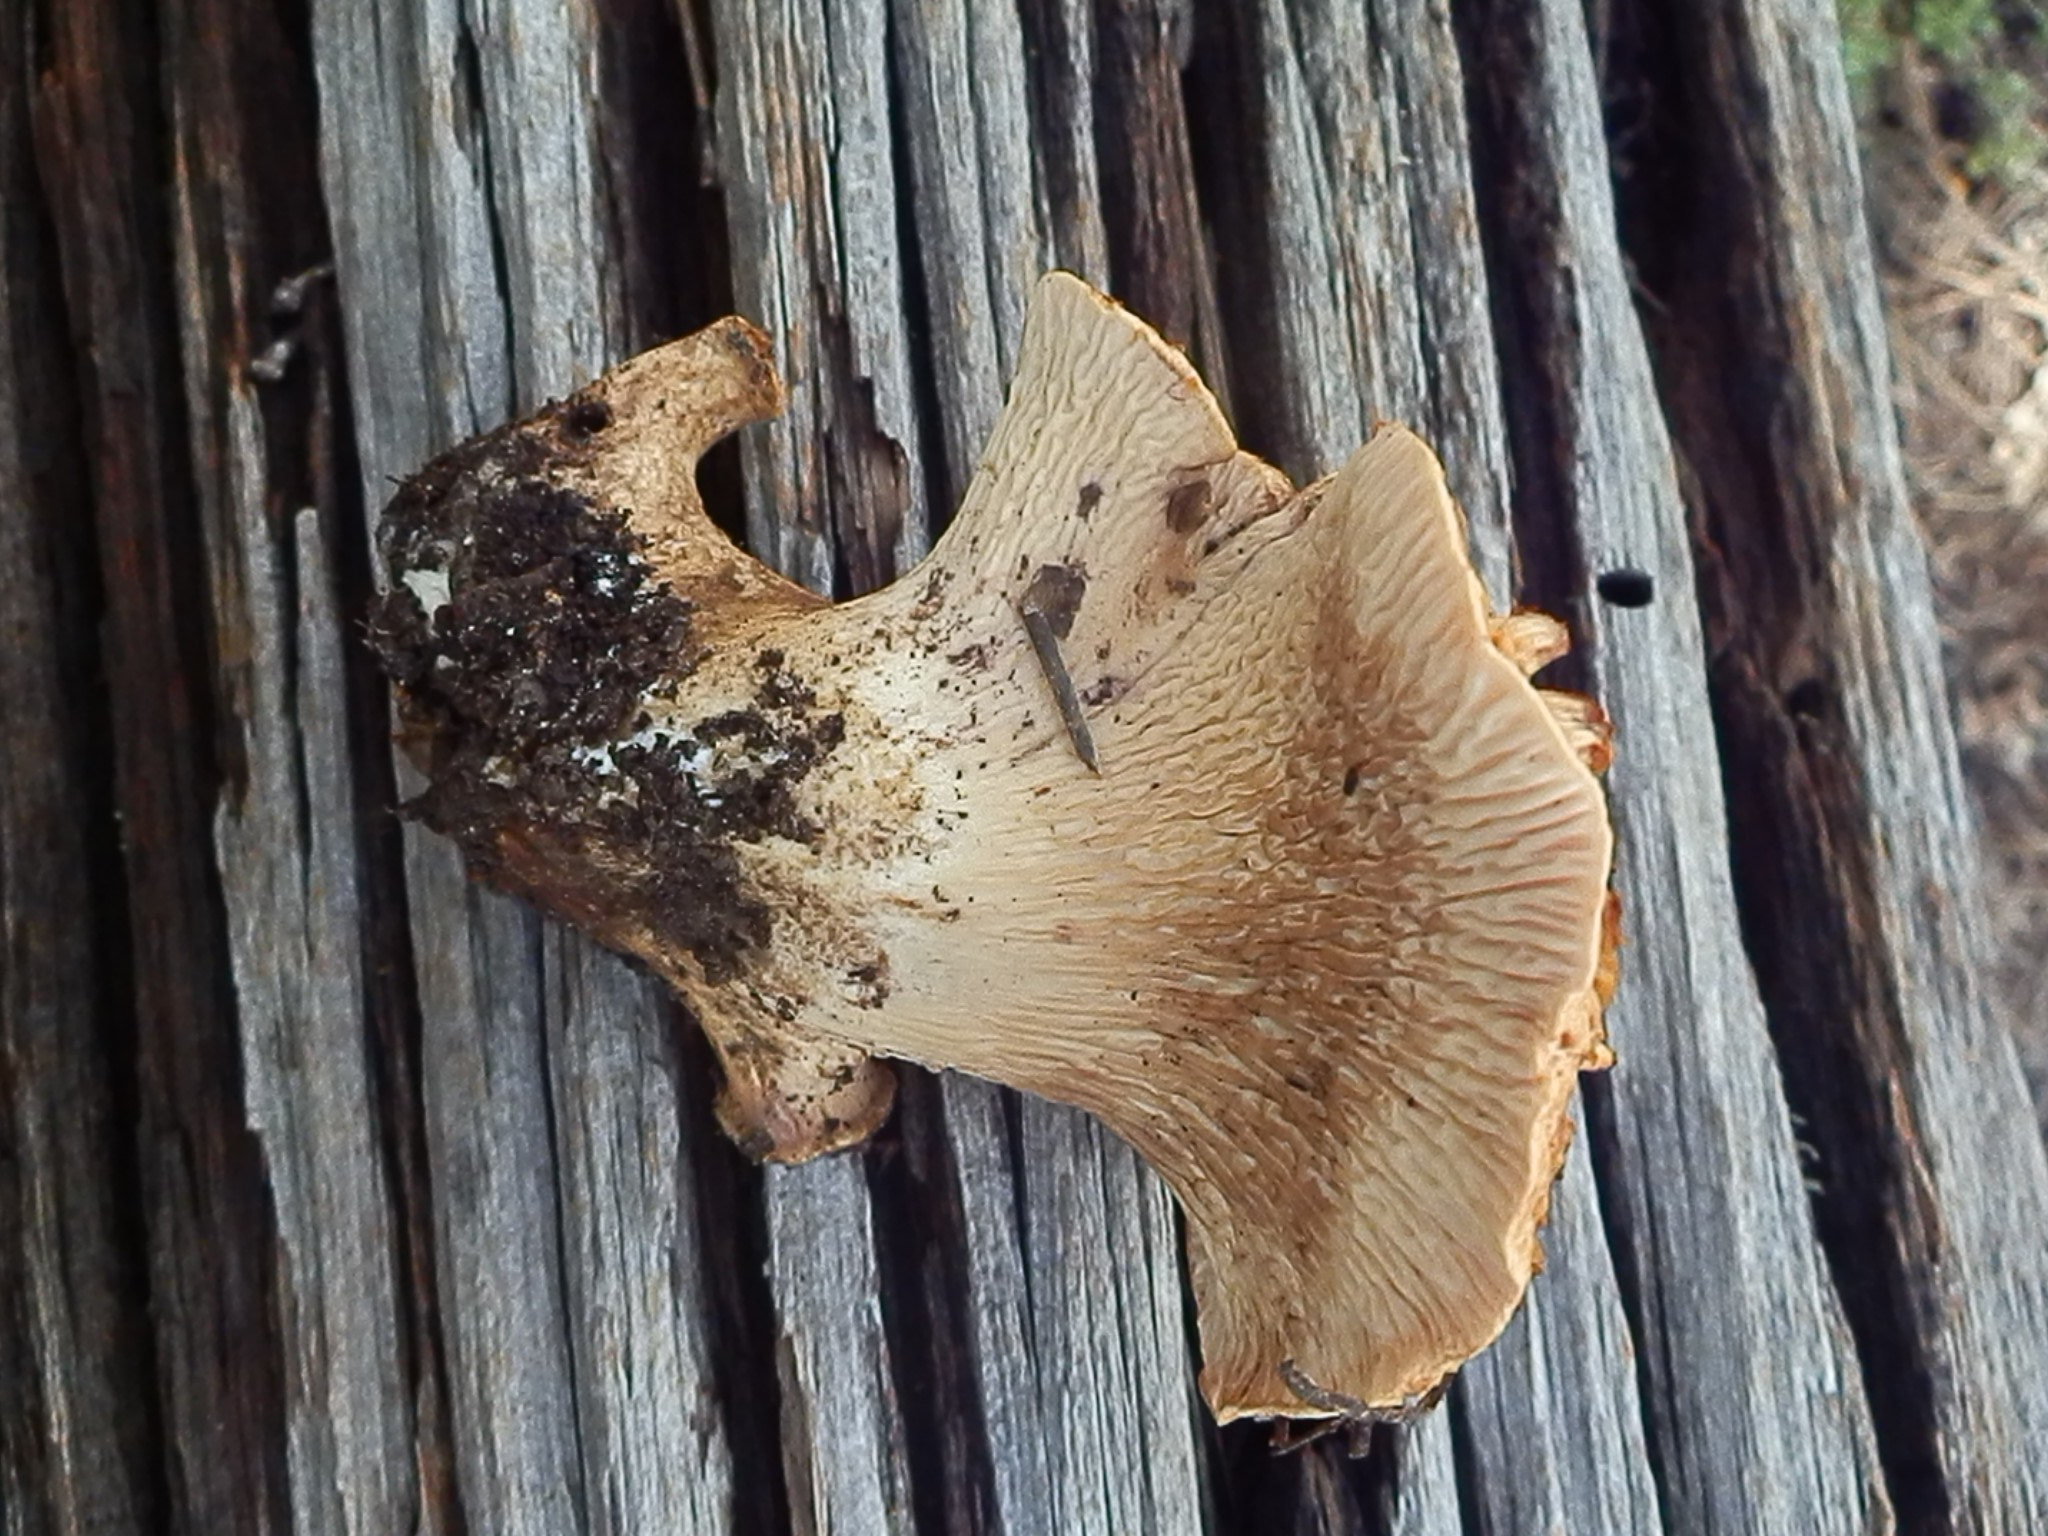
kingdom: Fungi
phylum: Basidiomycota
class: Agaricomycetes
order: Gomphales
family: Gomphaceae
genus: Turbinellus
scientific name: Turbinellus floccosus
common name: Scaly chanterelle
